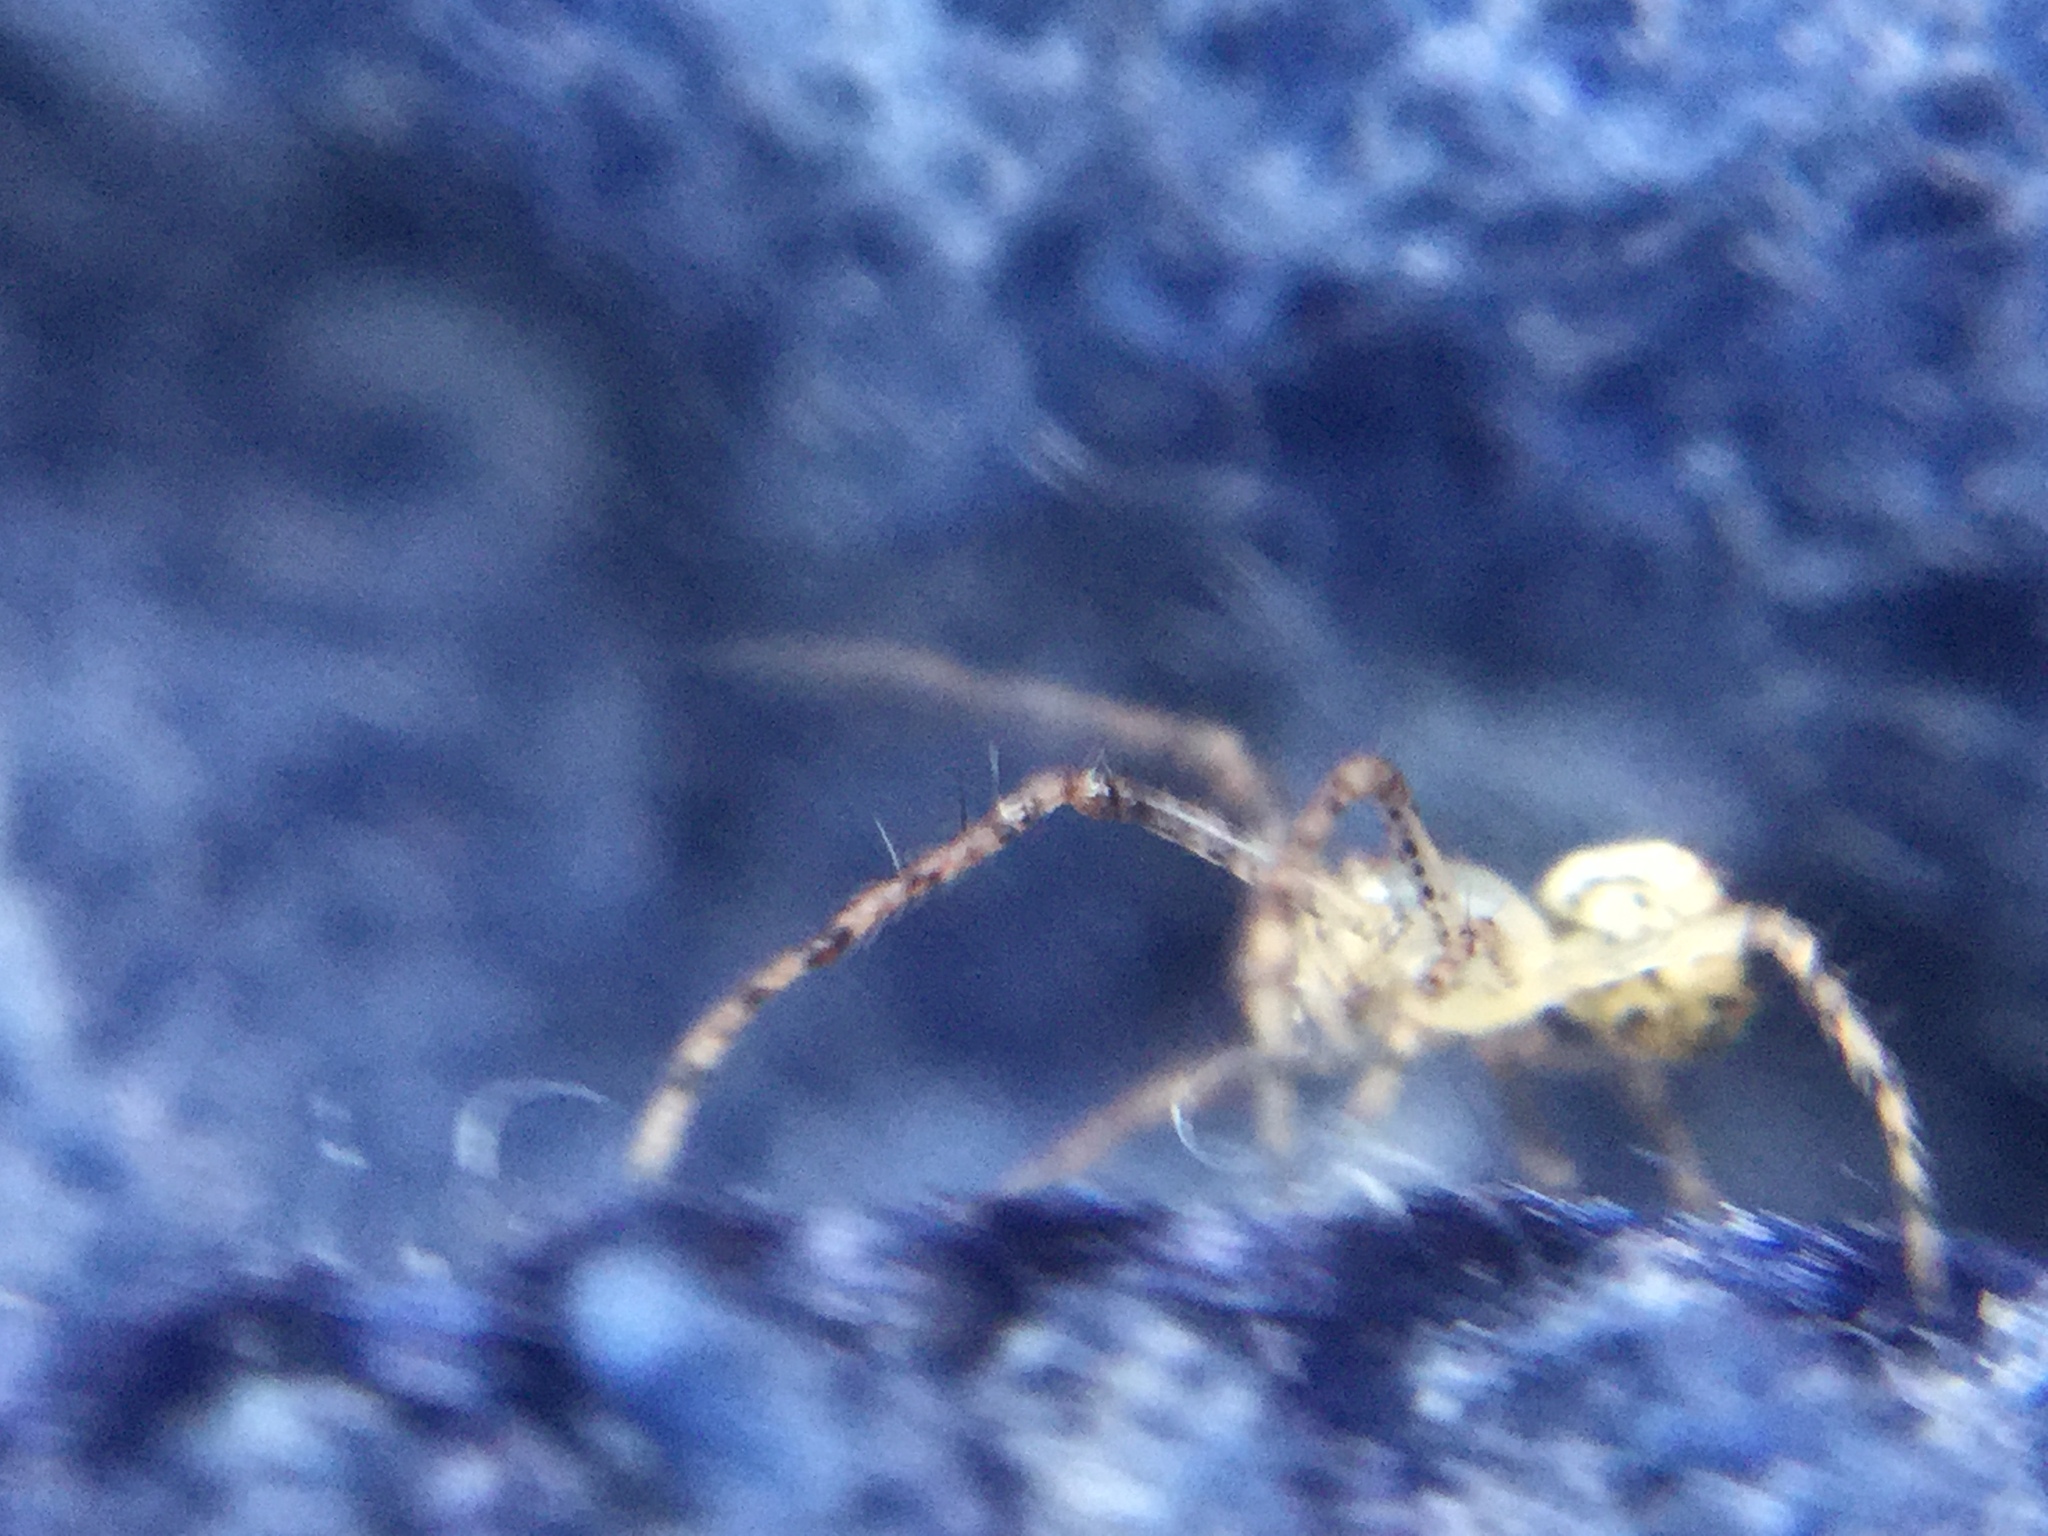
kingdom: Animalia
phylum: Arthropoda
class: Arachnida
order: Araneae
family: Mimetidae
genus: Mimetus
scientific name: Mimetus puritanus
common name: Common pirate spider
